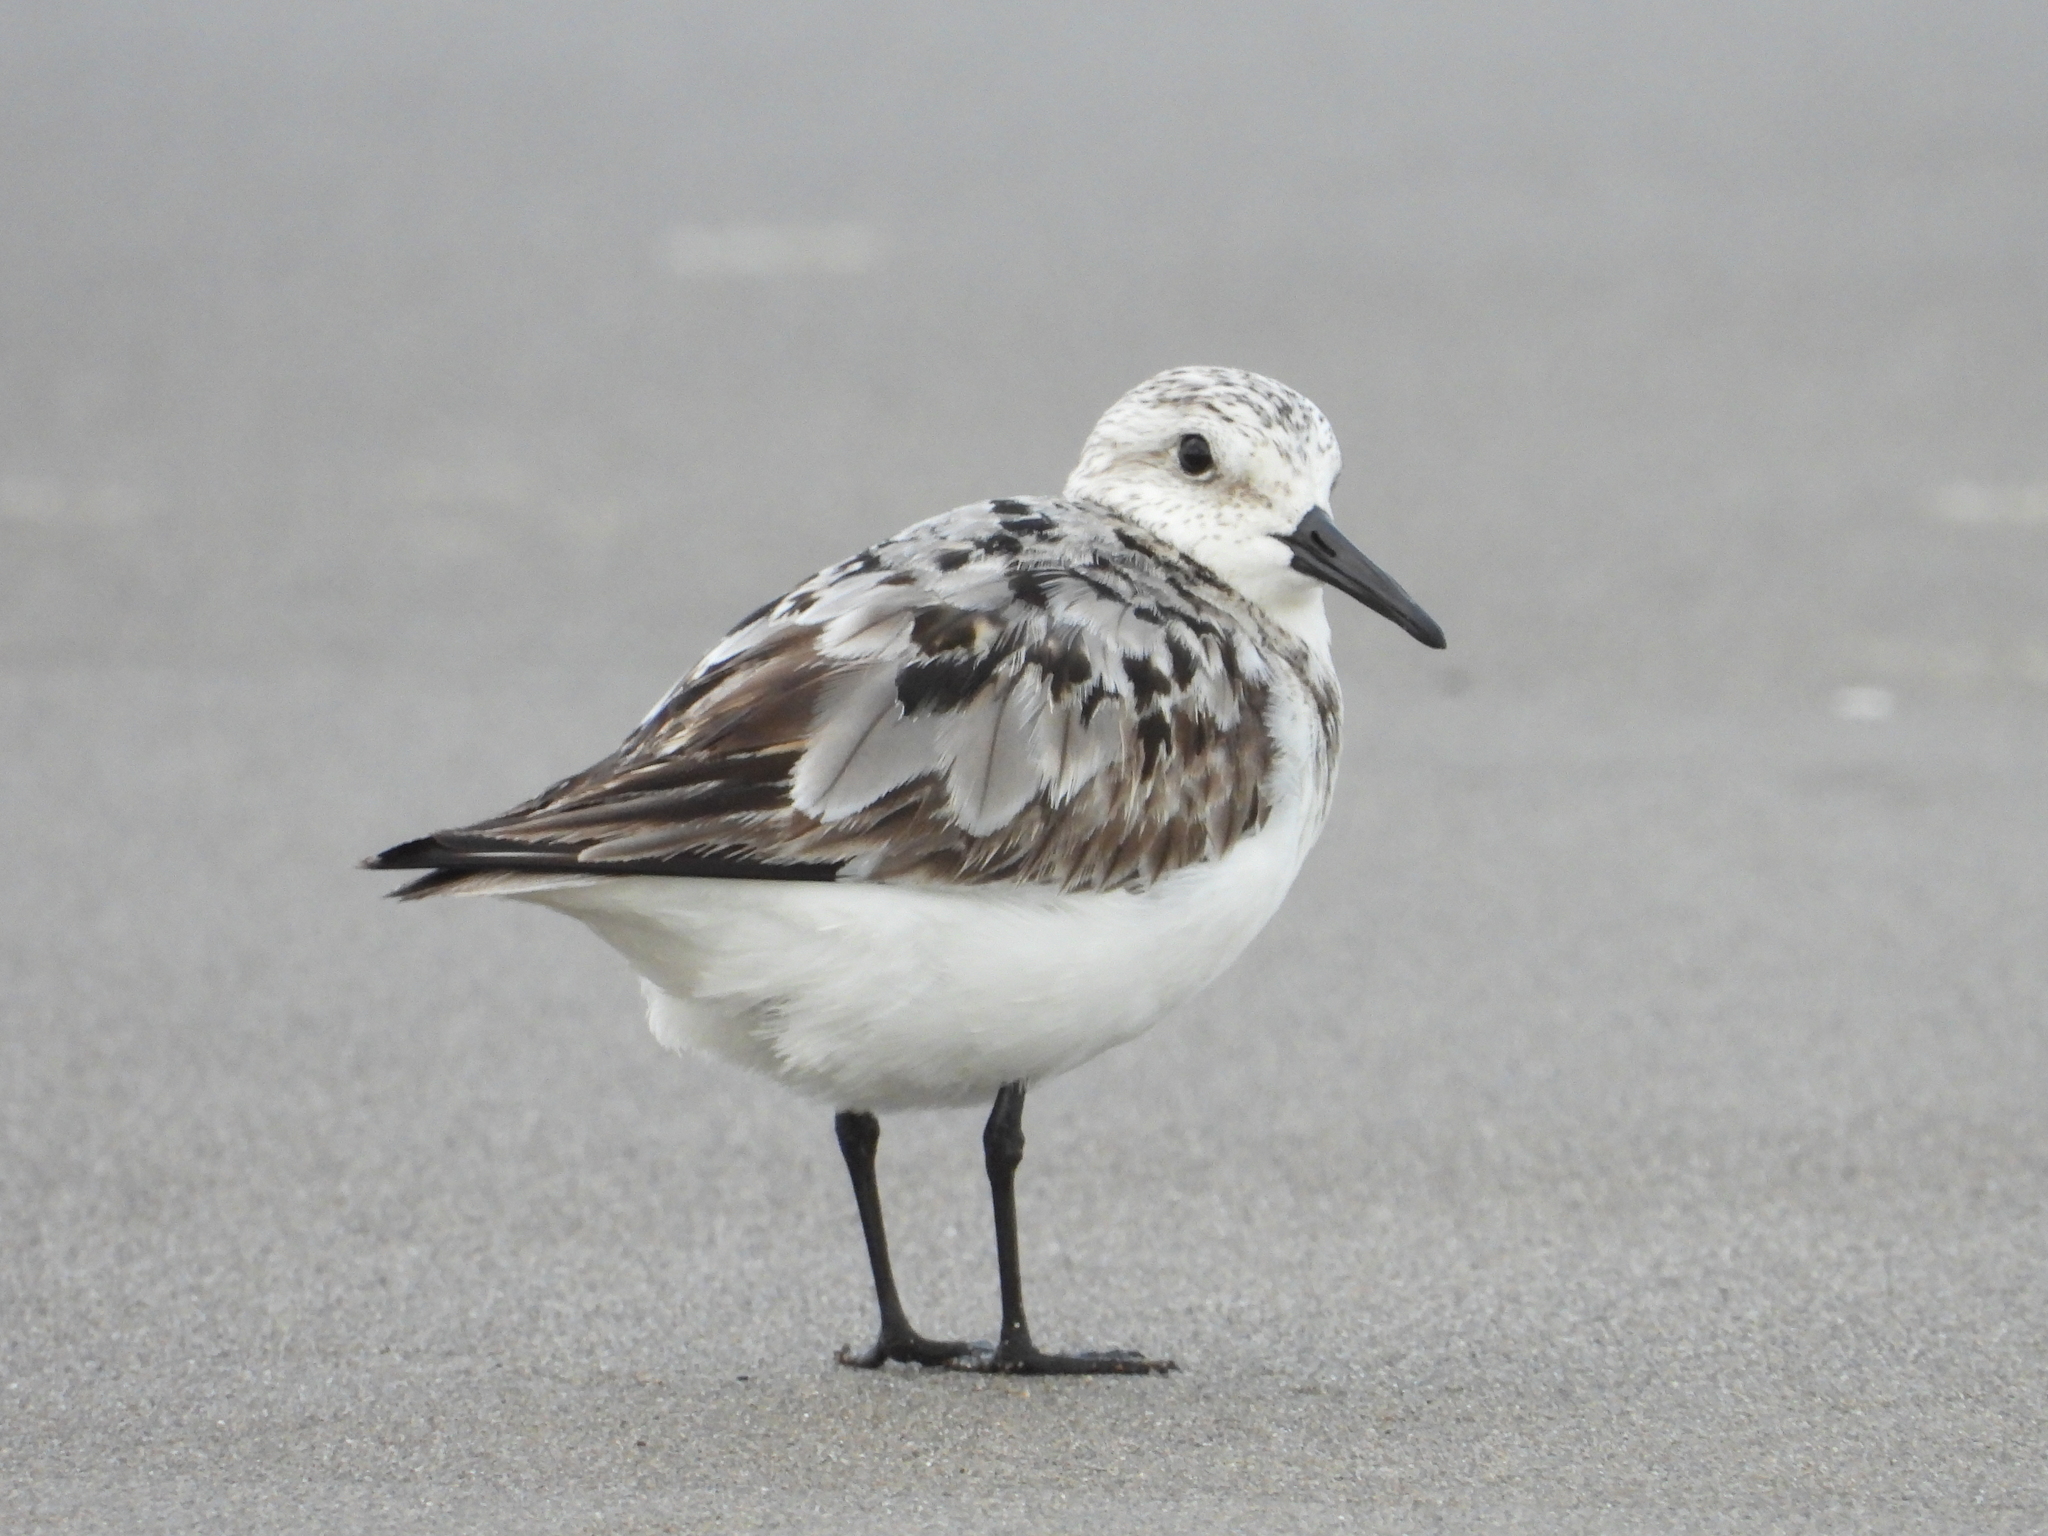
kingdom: Animalia
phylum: Chordata
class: Aves
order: Charadriiformes
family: Scolopacidae
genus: Calidris
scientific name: Calidris alba
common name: Sanderling
